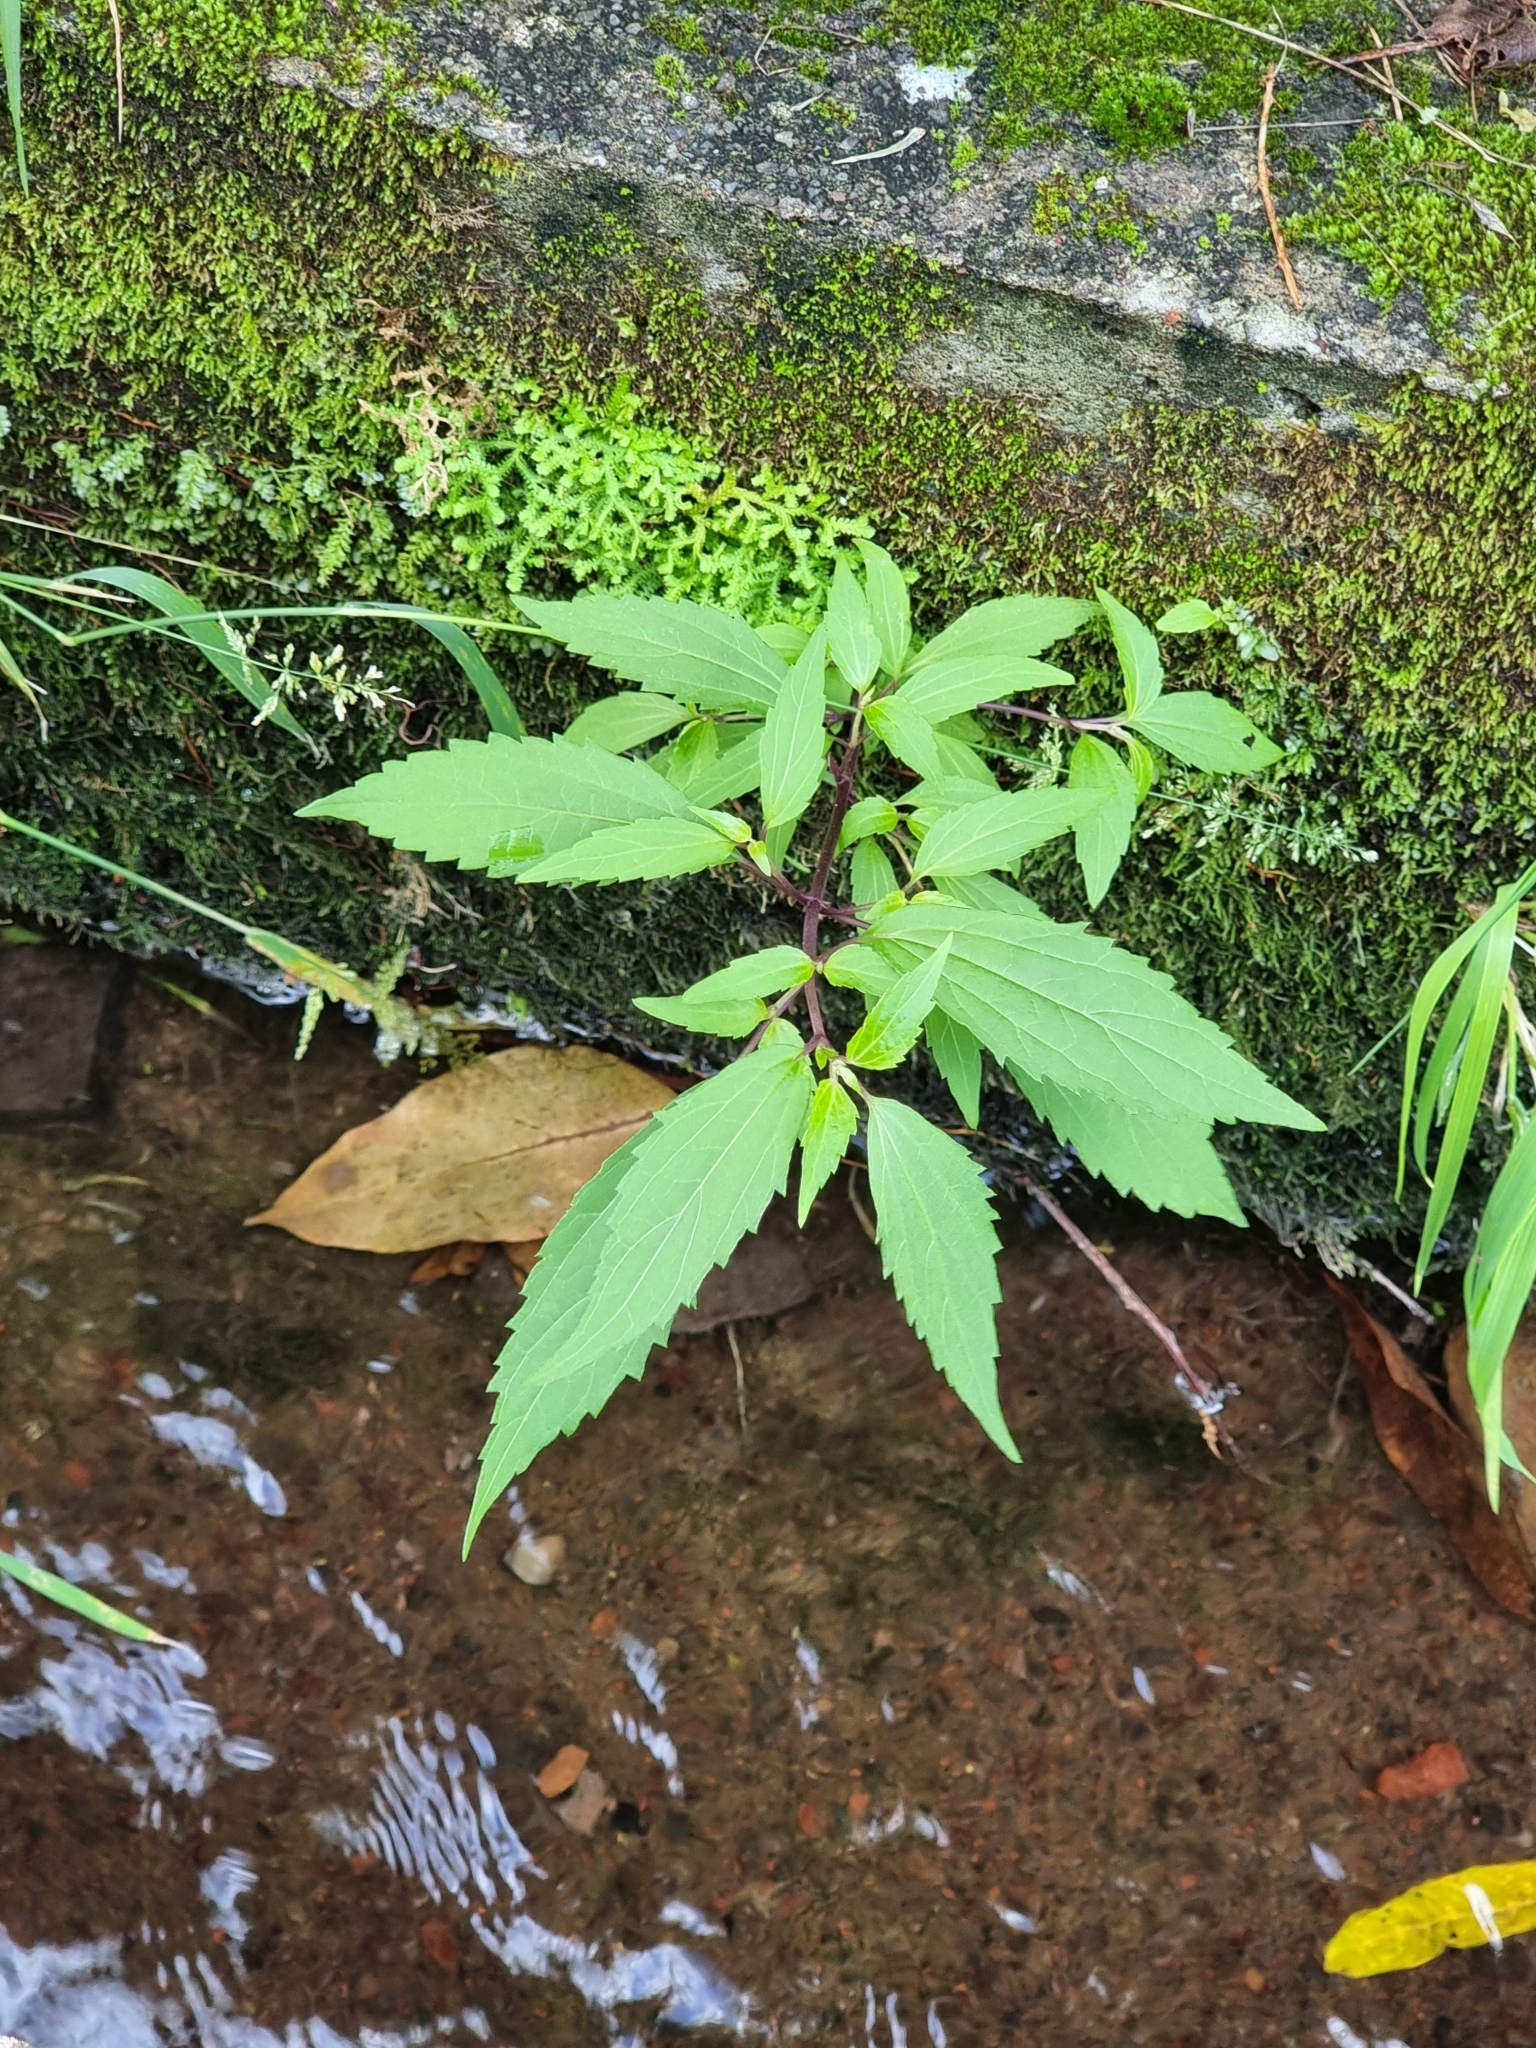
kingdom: Plantae
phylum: Tracheophyta
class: Magnoliopsida
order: Asterales
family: Asteraceae
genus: Ageratina
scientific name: Ageratina riparia
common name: Creeping croftonweed
